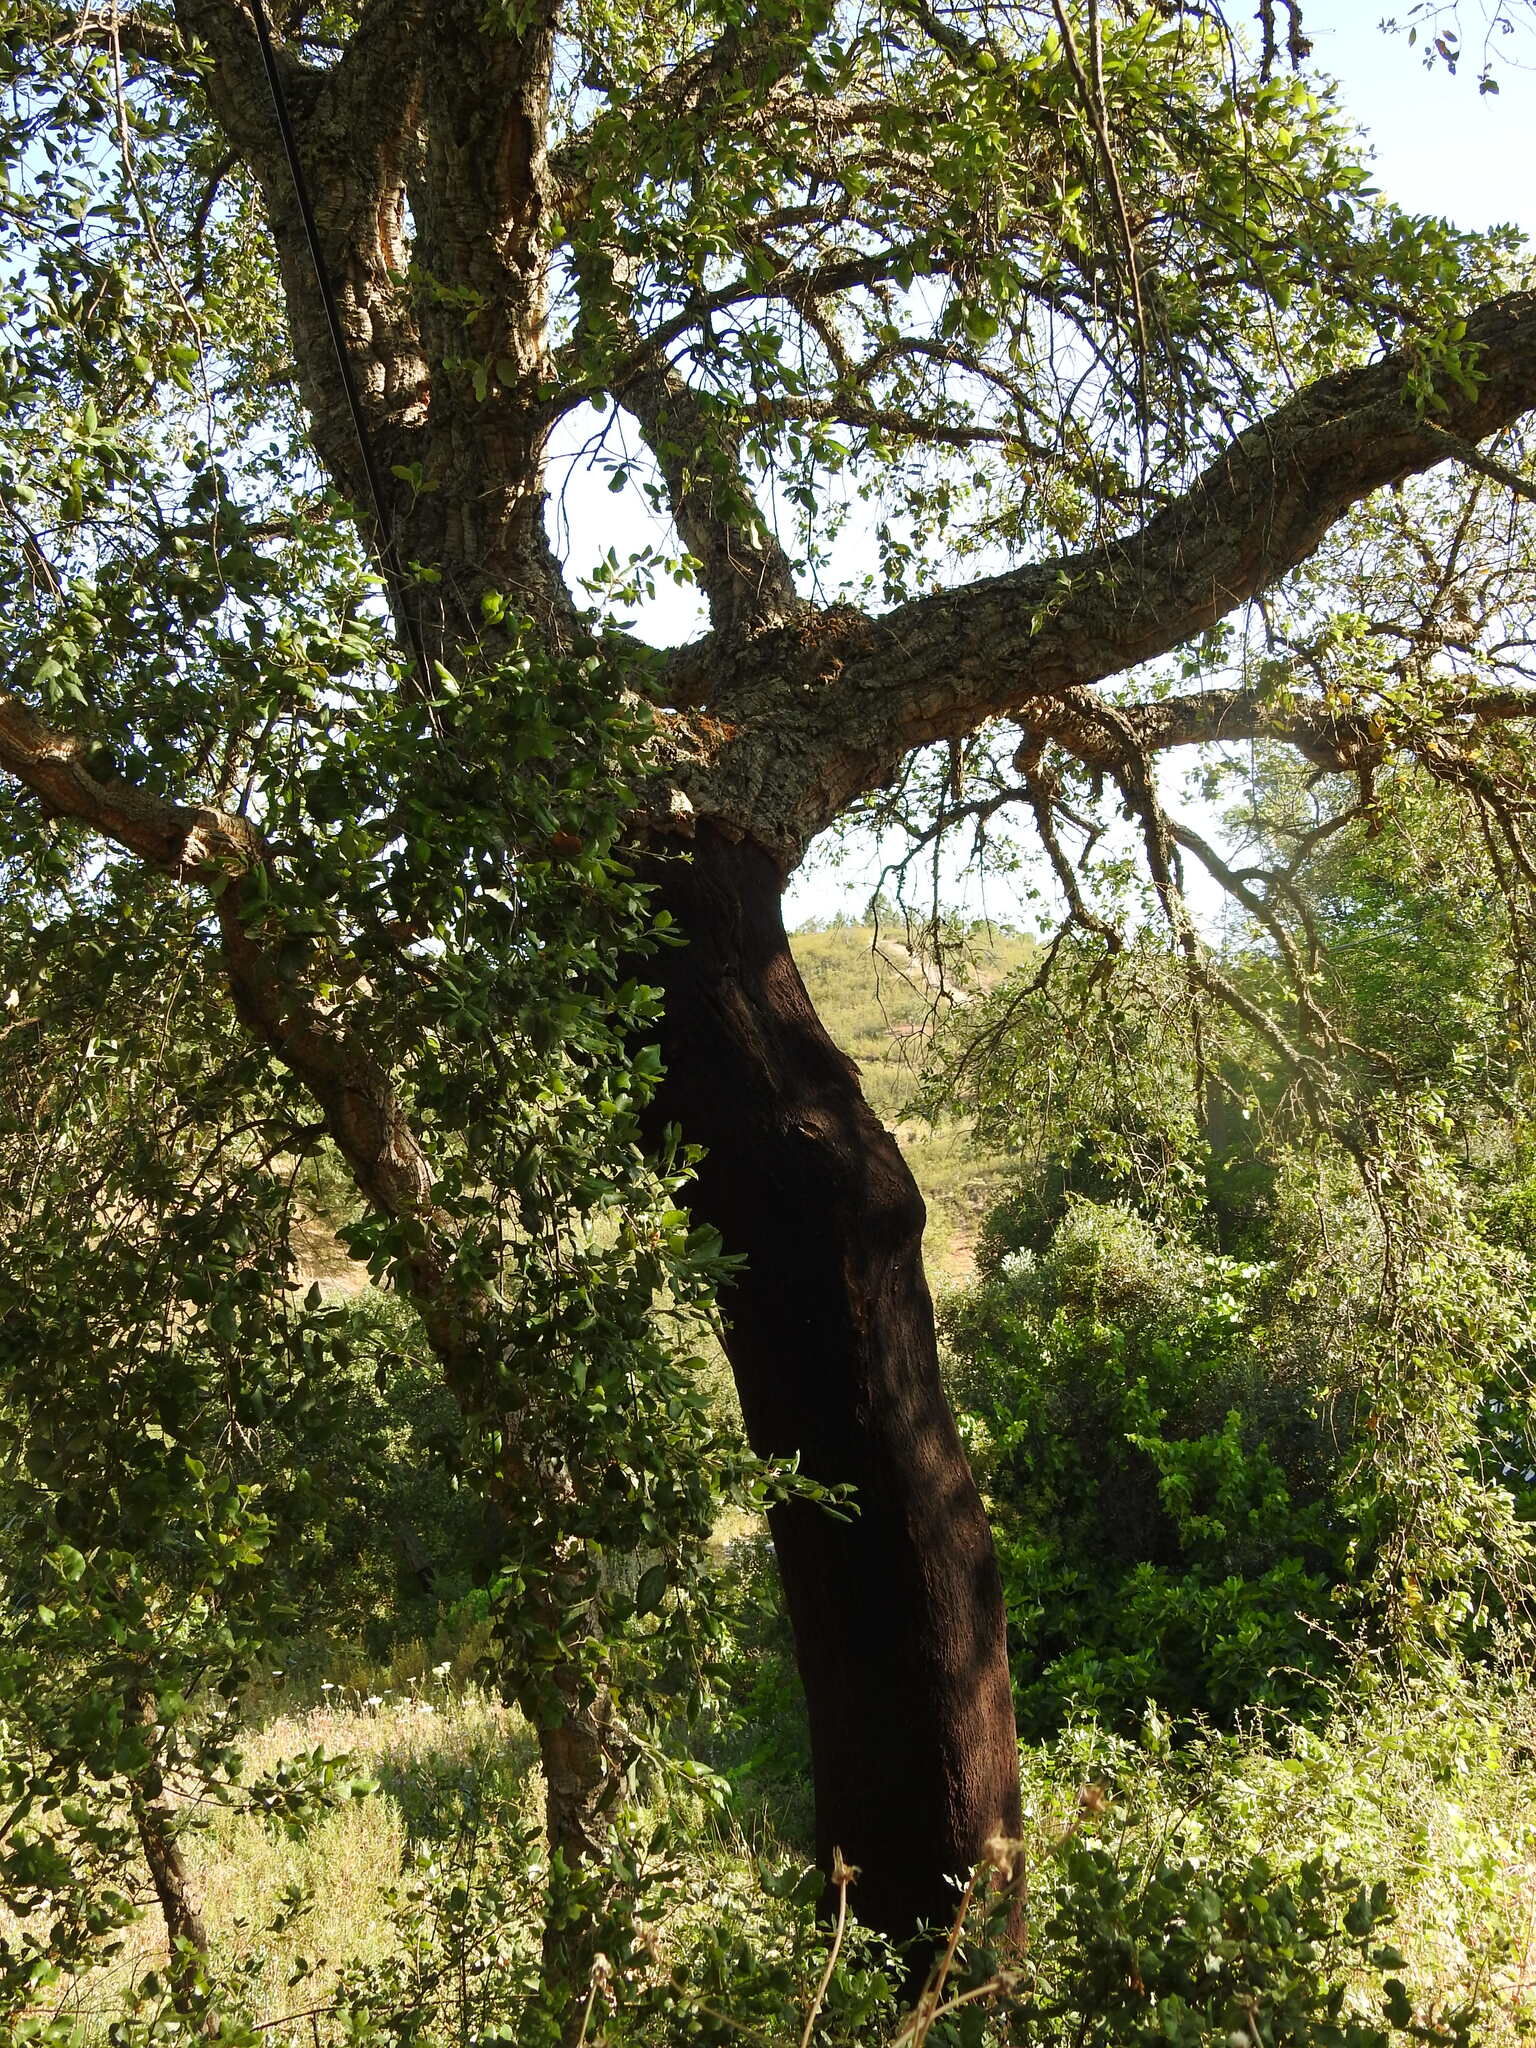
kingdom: Plantae
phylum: Tracheophyta
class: Magnoliopsida
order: Fagales
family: Fagaceae
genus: Quercus
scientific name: Quercus suber
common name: Cork oak
